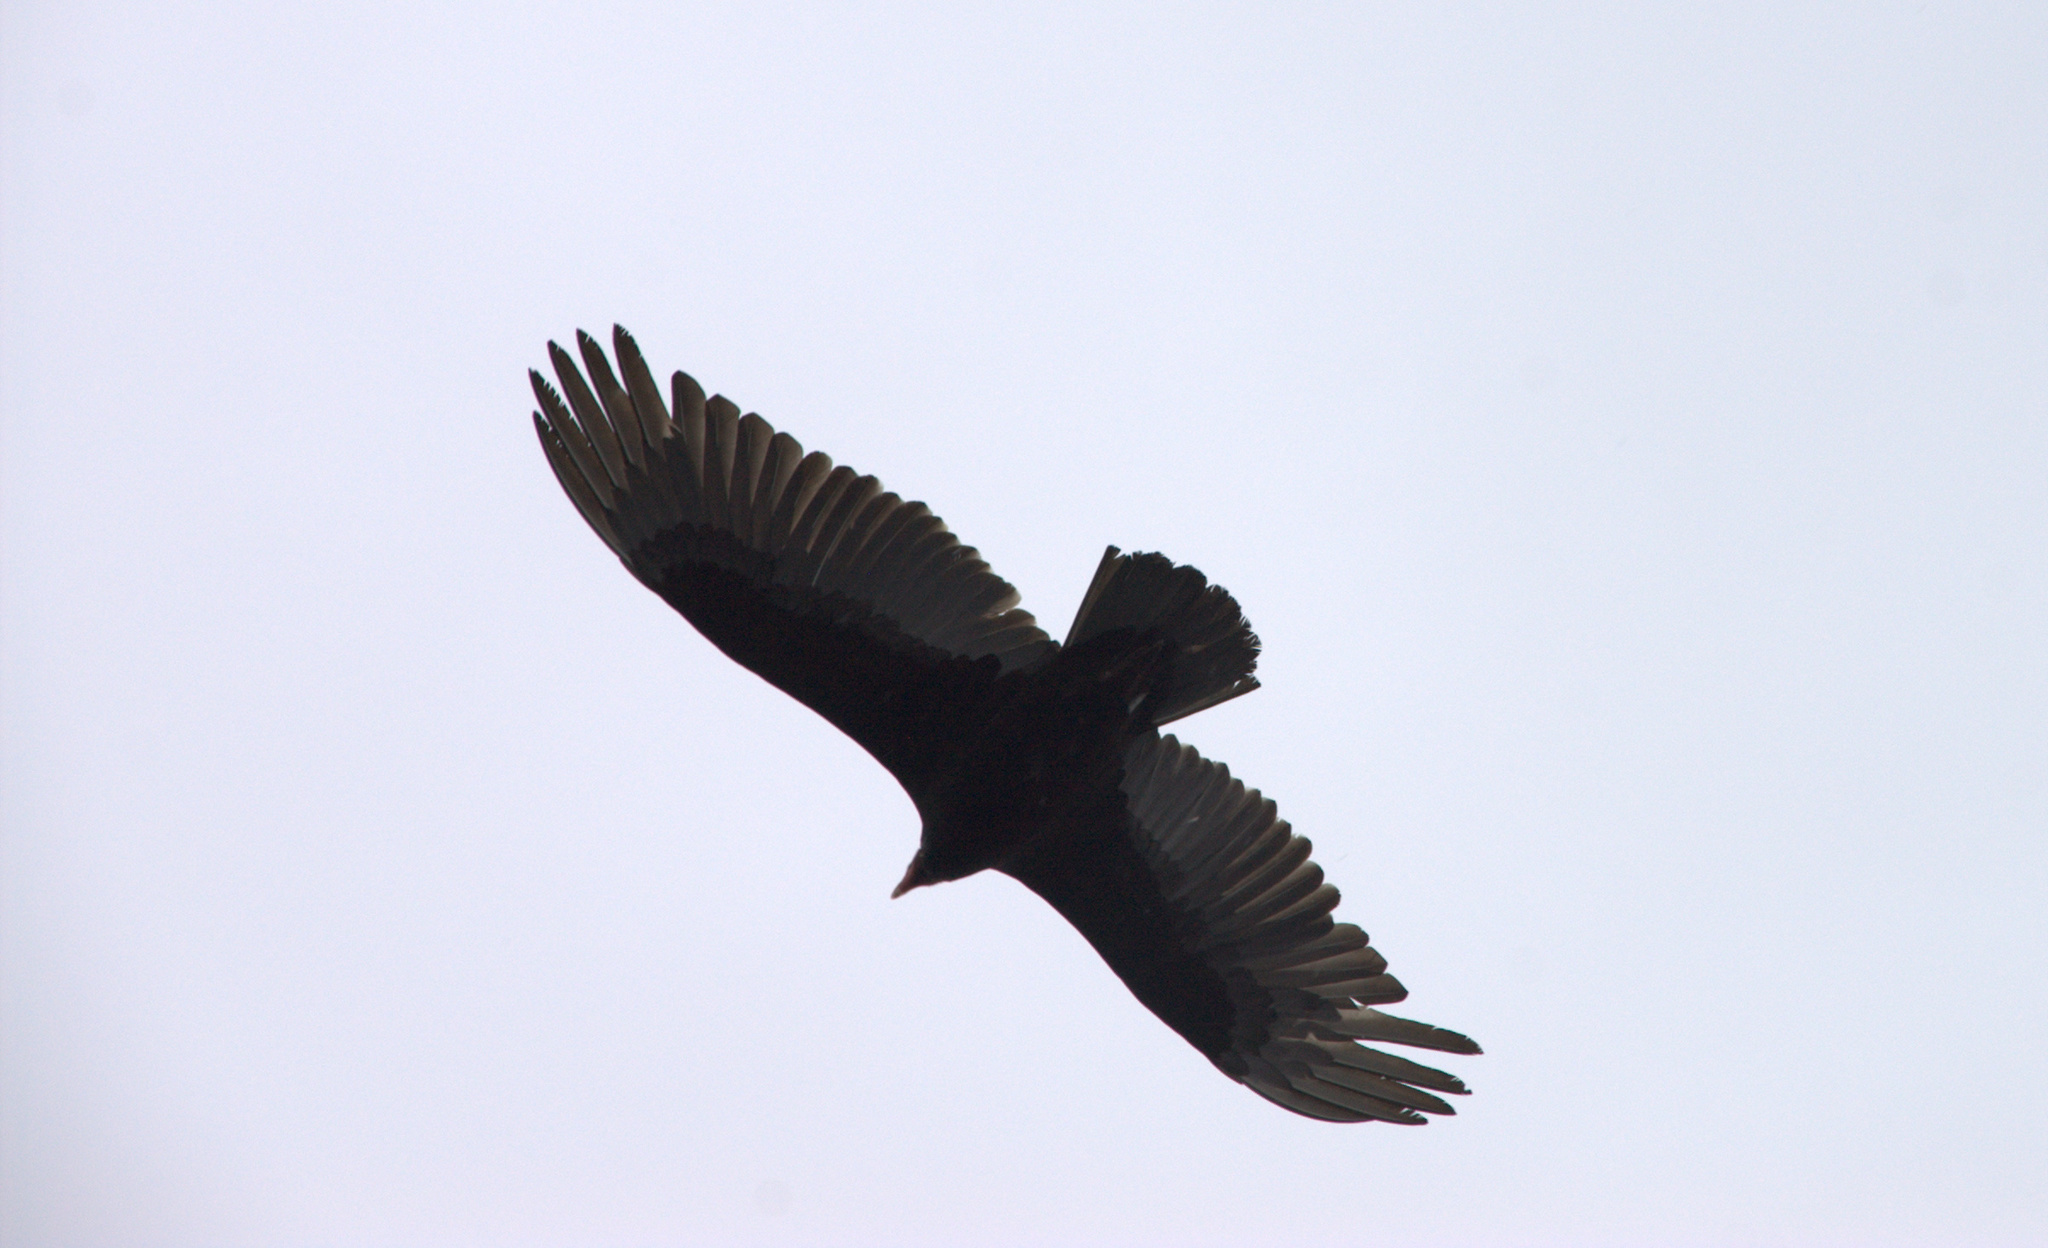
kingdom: Animalia
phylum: Chordata
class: Aves
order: Accipitriformes
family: Cathartidae
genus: Cathartes
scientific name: Cathartes aura
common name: Turkey vulture
